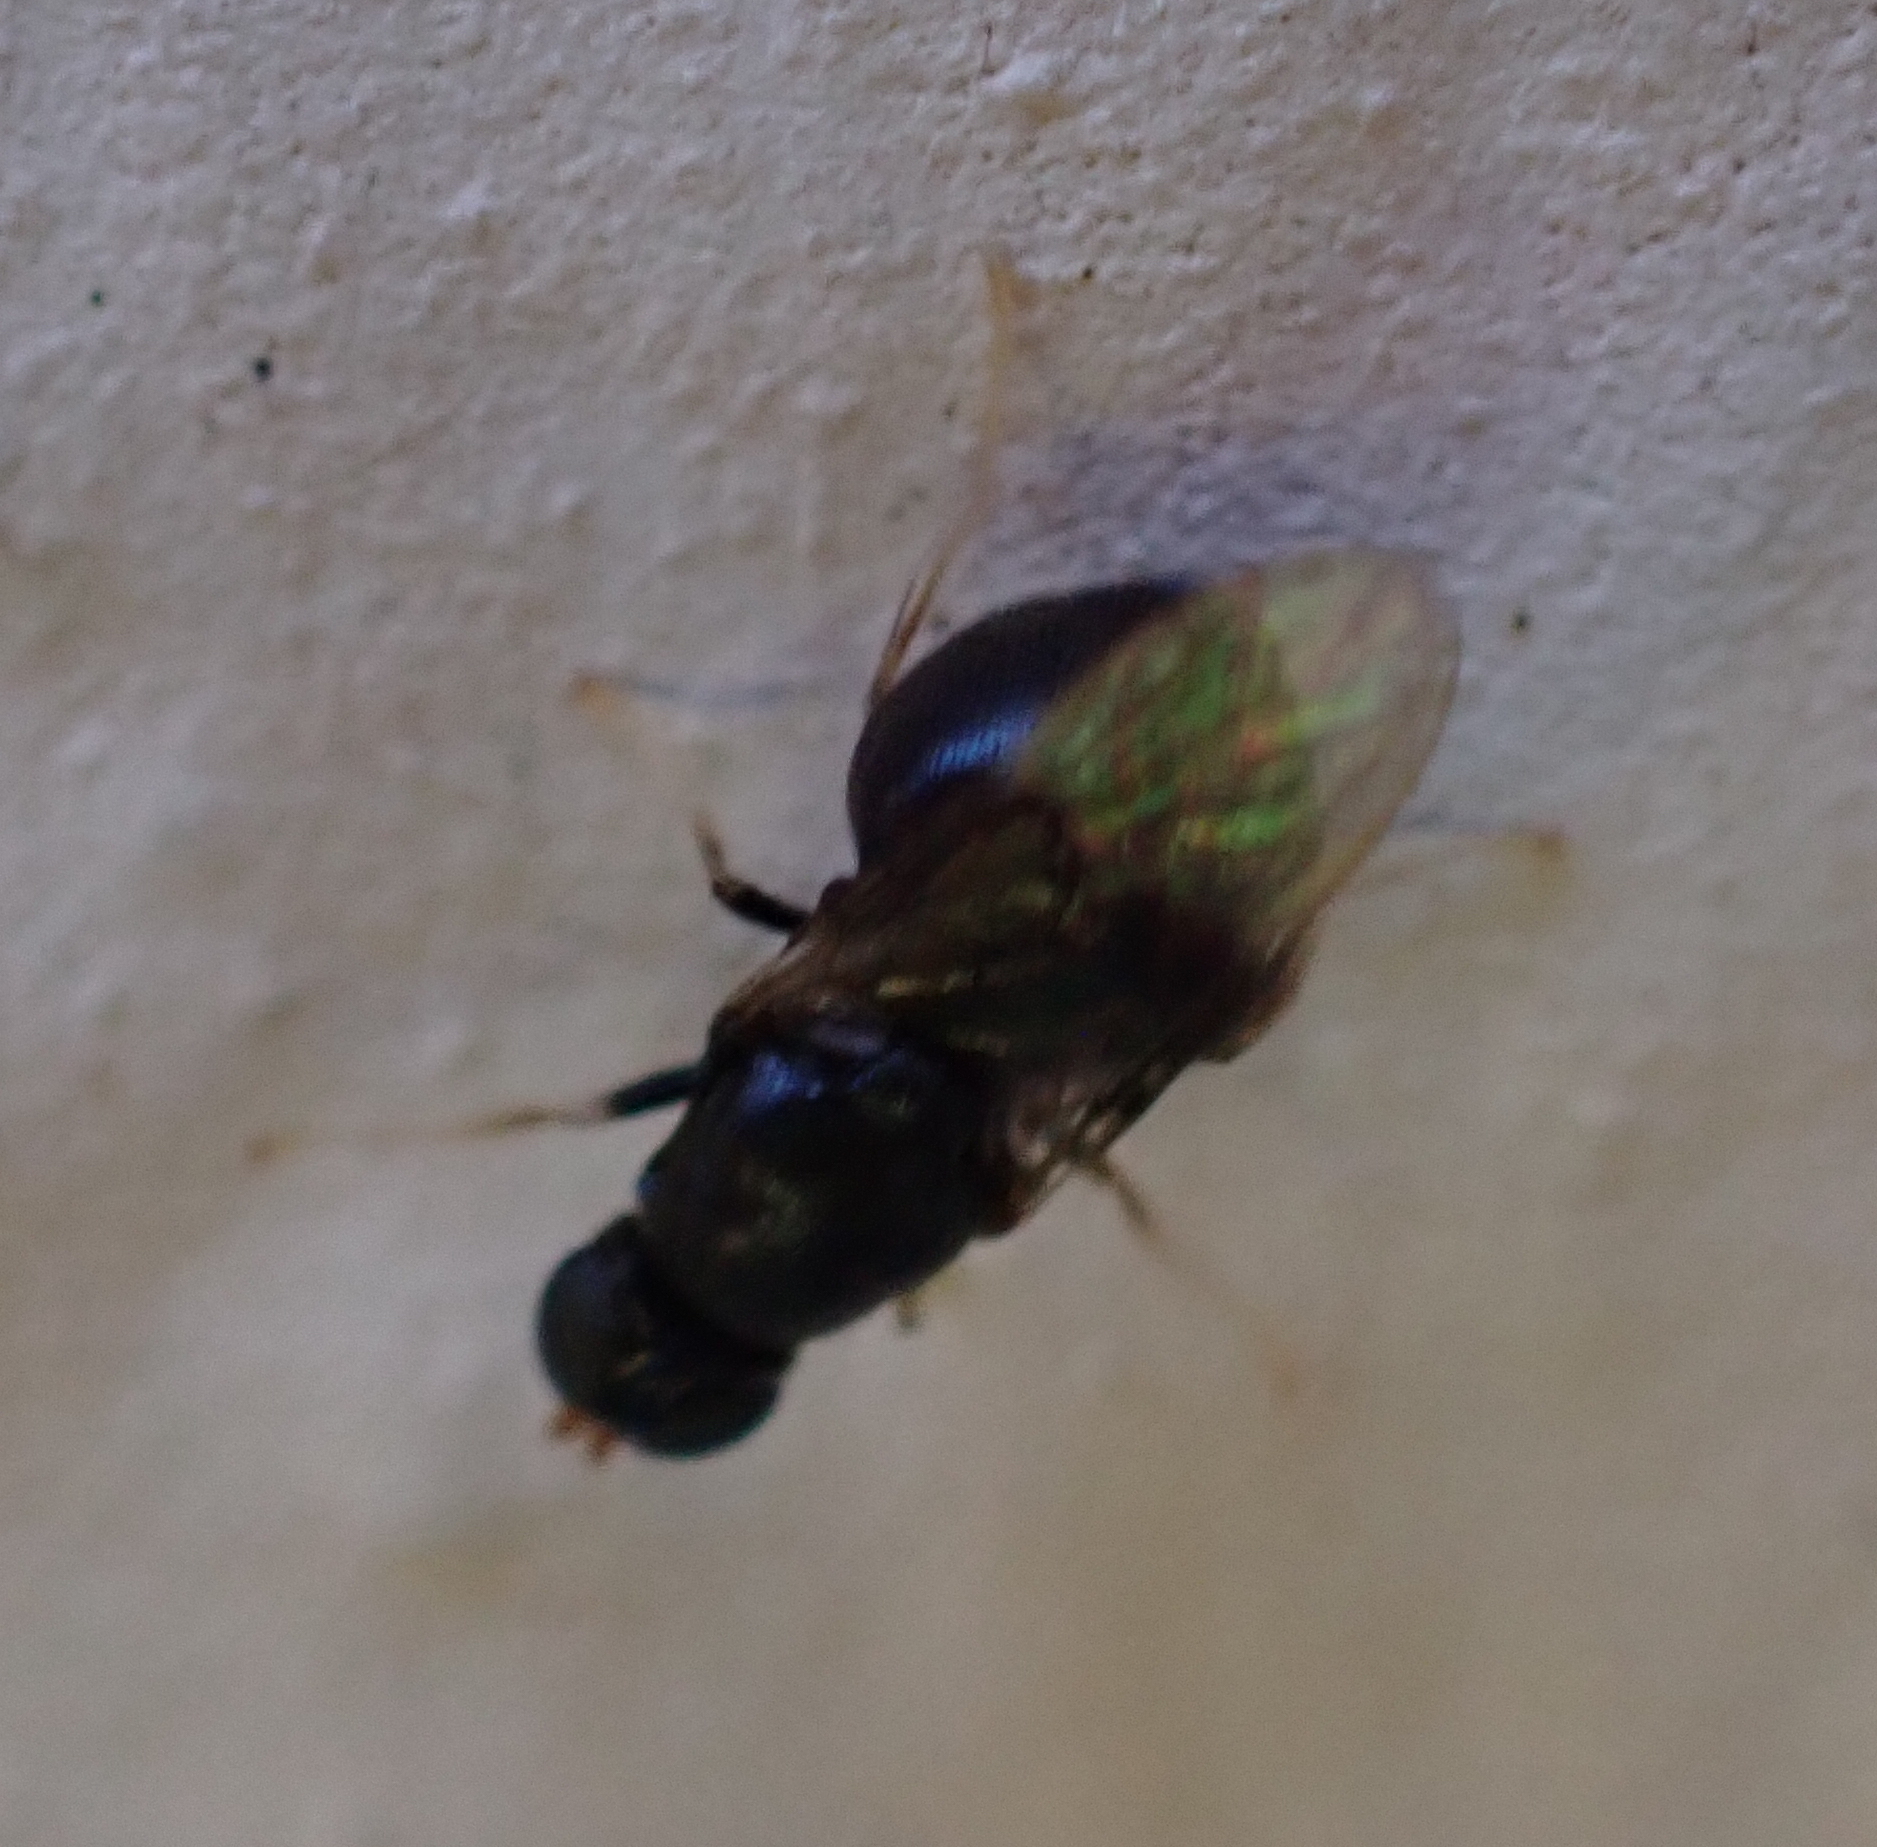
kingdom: Animalia
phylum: Arthropoda
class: Insecta
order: Diptera
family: Stratiomyidae
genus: Pachygaster
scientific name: Pachygaster atra
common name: Dark-winged black
